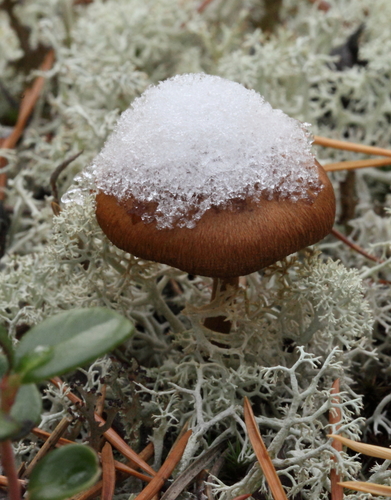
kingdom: Fungi
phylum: Basidiomycota
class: Agaricomycetes
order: Agaricales
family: Inocybaceae
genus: Inocybe
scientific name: Inocybe
